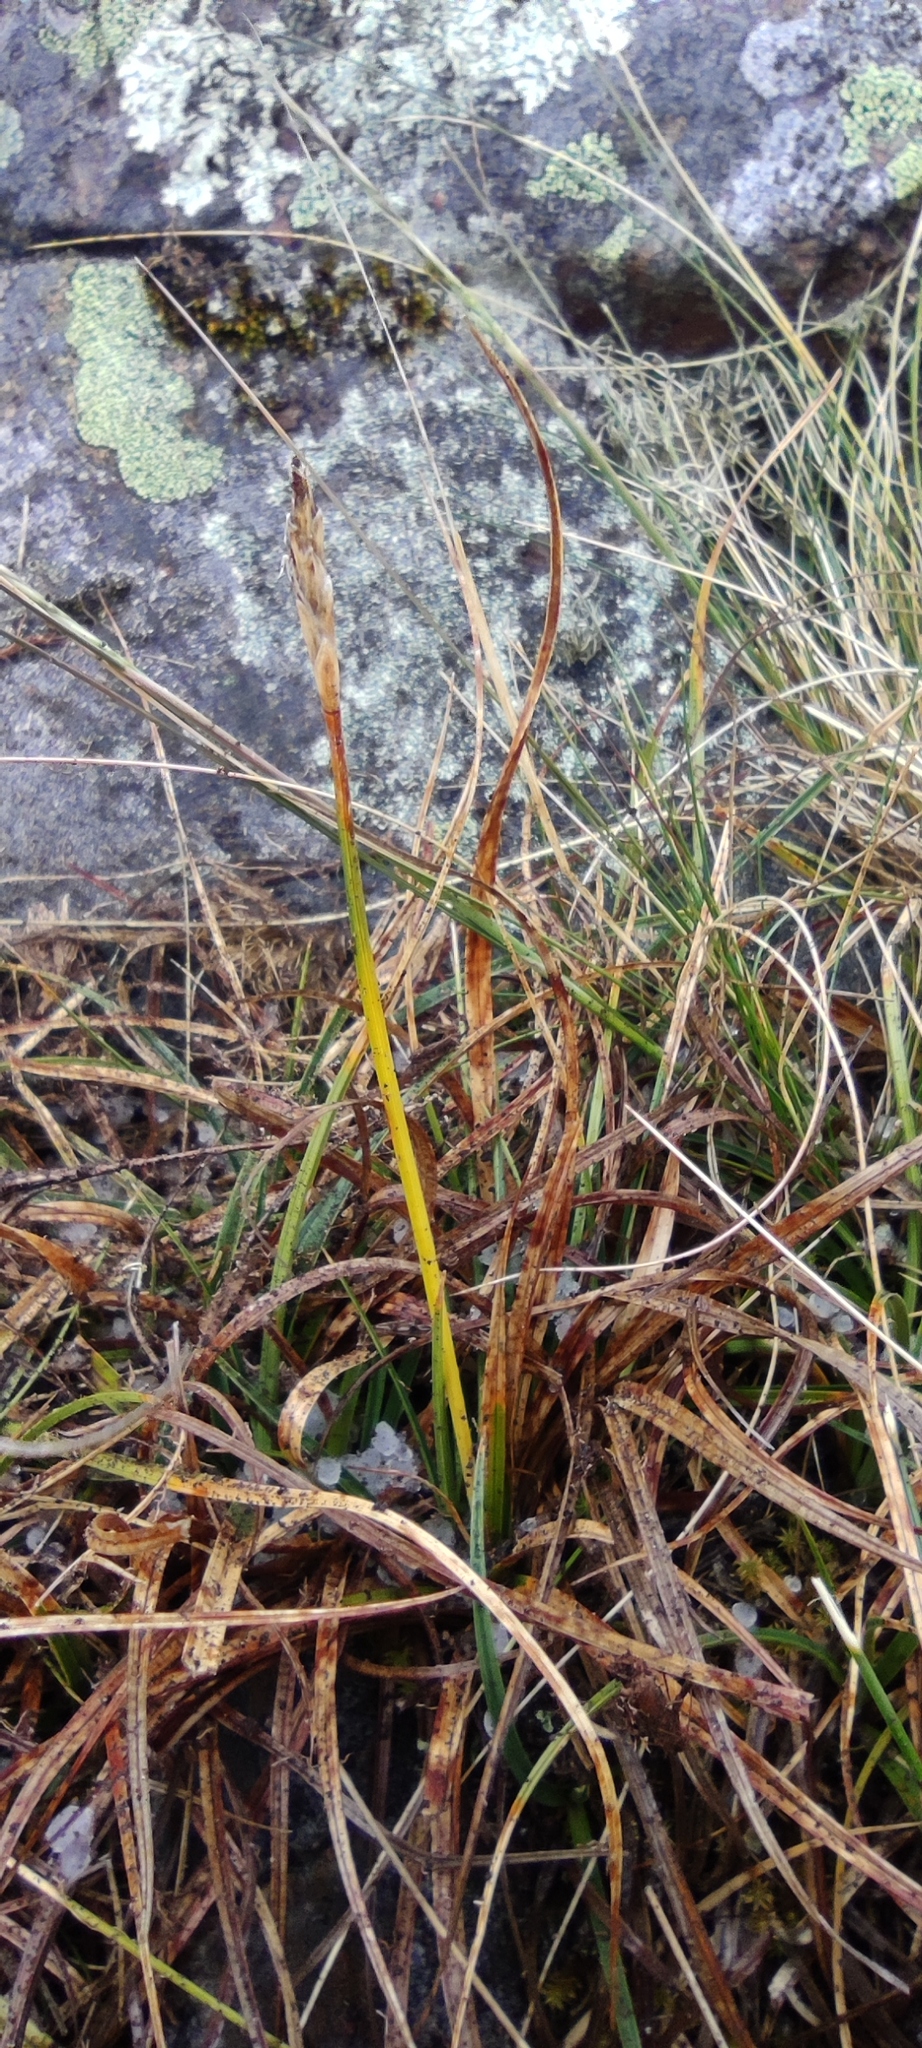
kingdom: Plantae
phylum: Tracheophyta
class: Liliopsida
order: Poales
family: Cyperaceae
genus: Carex
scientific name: Carex meridensis
